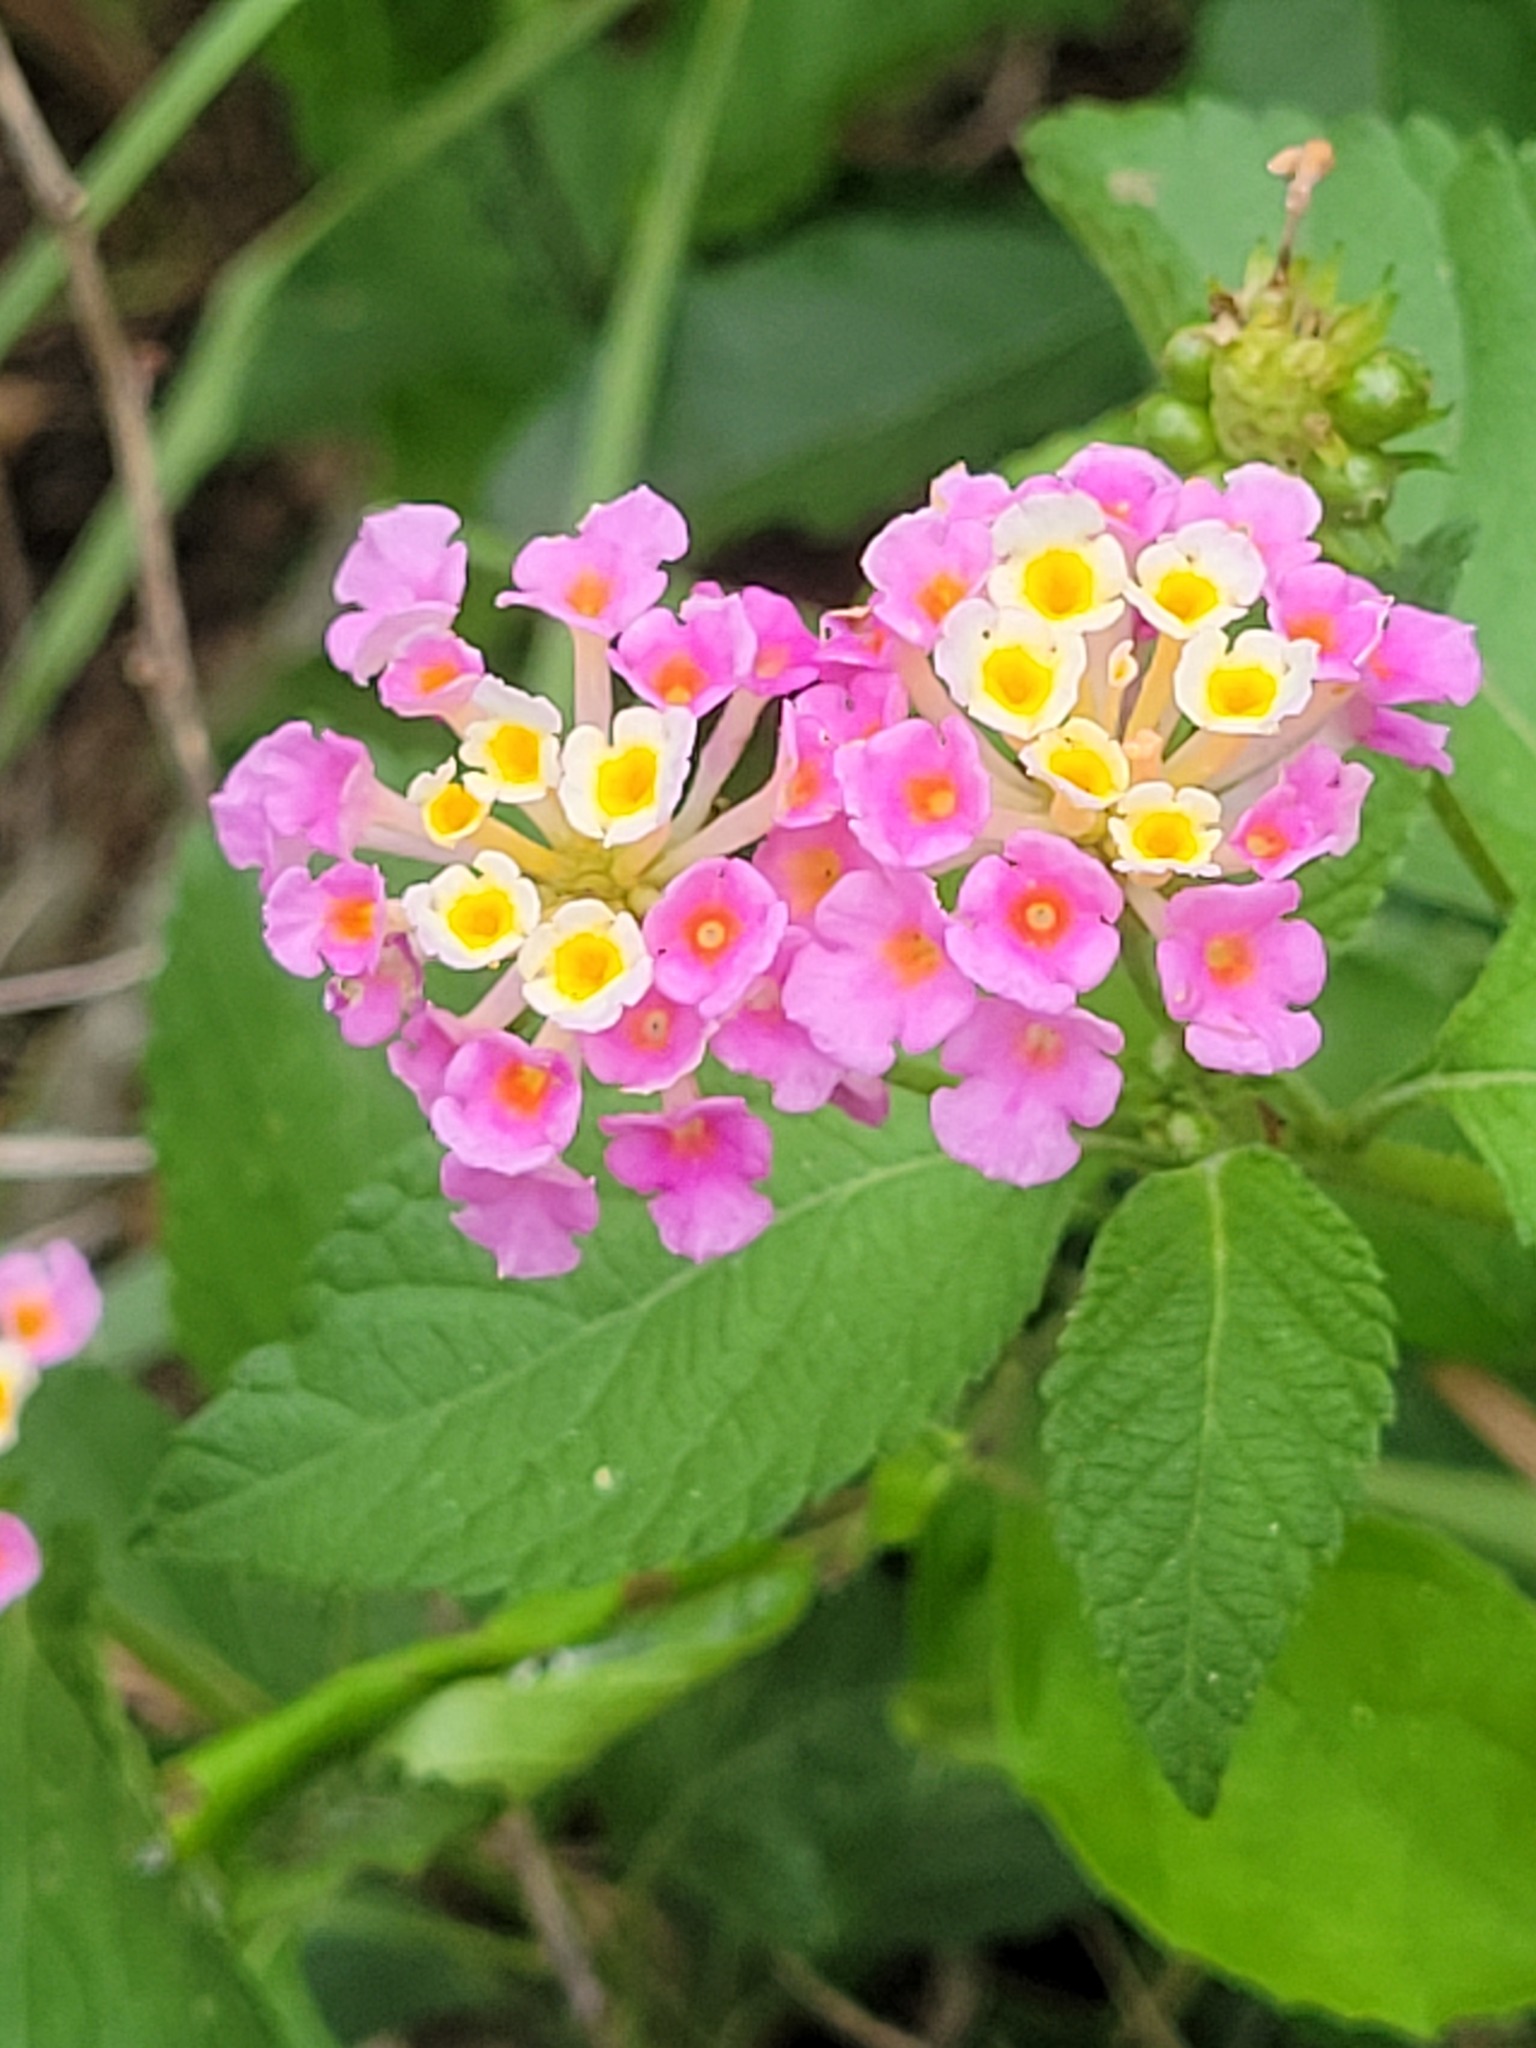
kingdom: Plantae
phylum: Tracheophyta
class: Magnoliopsida
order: Lamiales
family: Verbenaceae
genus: Lantana
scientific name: Lantana strigocamara
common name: Lantana
